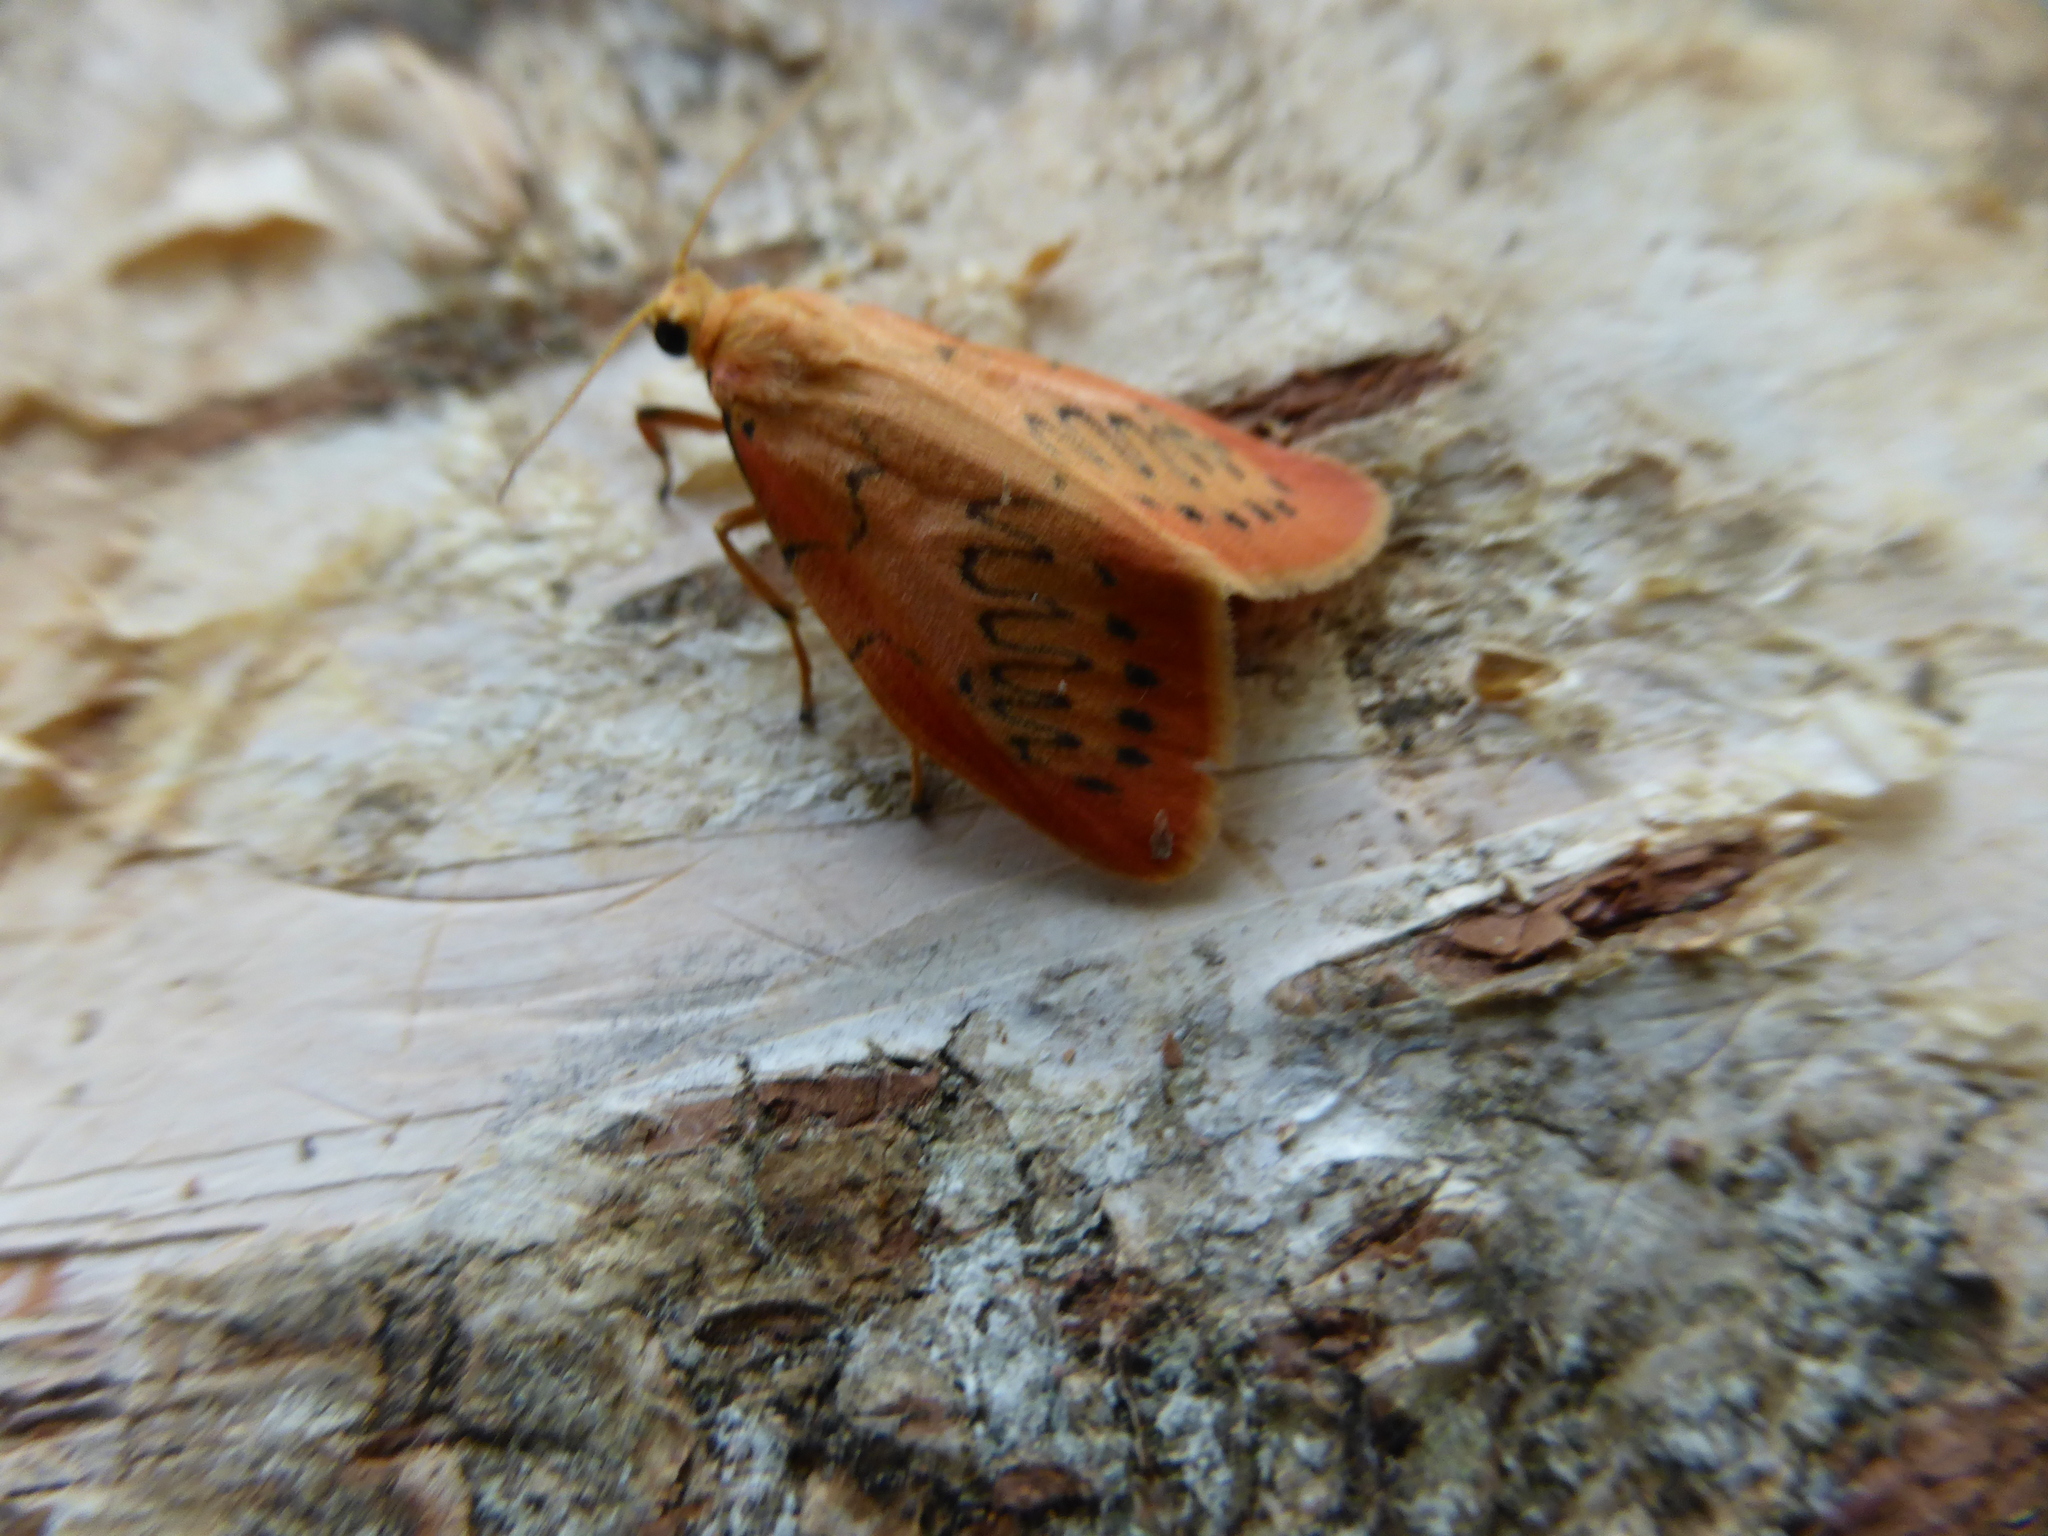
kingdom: Animalia
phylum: Arthropoda
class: Insecta
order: Lepidoptera
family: Erebidae
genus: Miltochrista
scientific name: Miltochrista miniata
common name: Rosy footman
